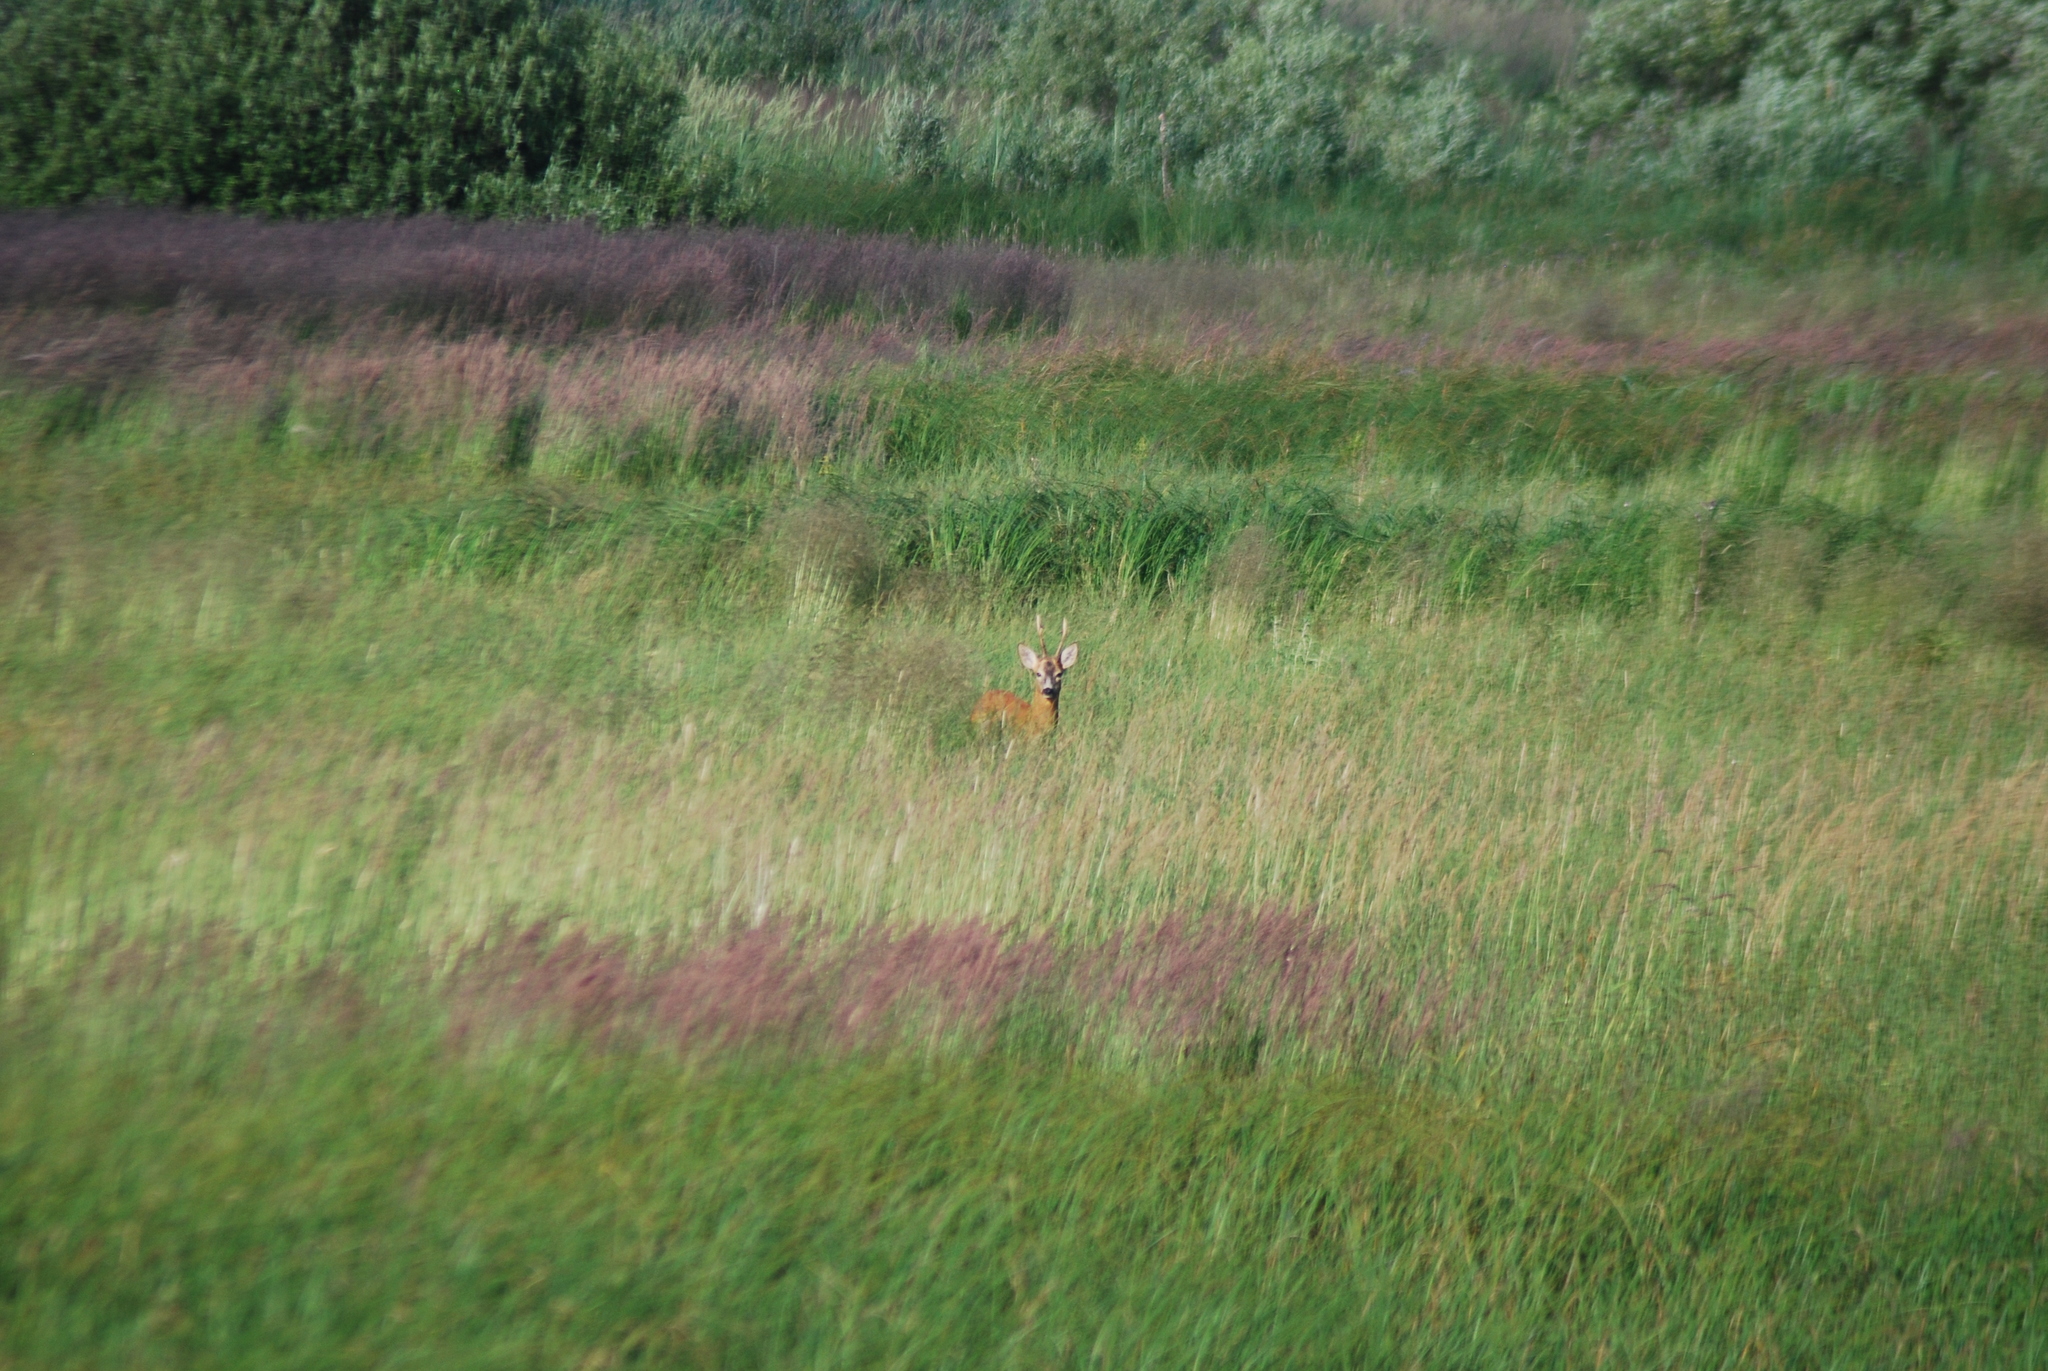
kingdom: Animalia
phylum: Chordata
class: Mammalia
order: Artiodactyla
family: Cervidae
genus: Capreolus
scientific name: Capreolus capreolus
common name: Western roe deer
